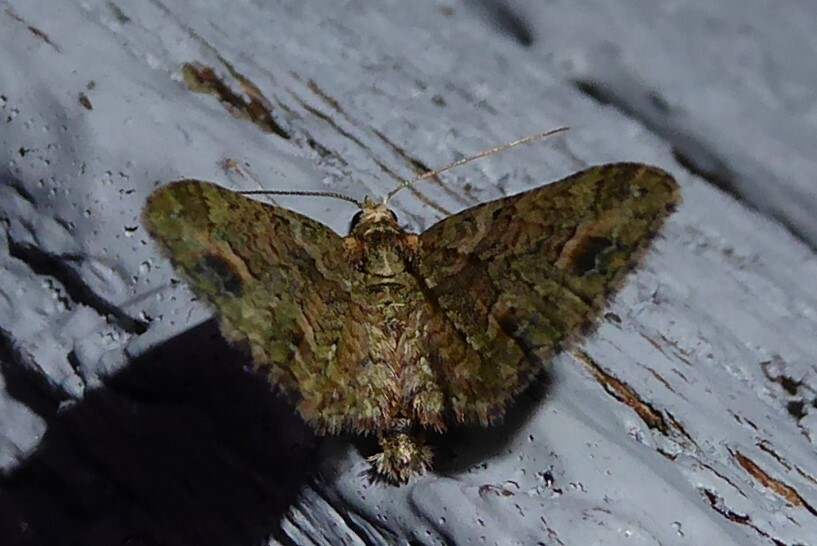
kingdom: Animalia
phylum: Arthropoda
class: Insecta
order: Lepidoptera
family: Geometridae
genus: Idaea
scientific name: Idaea mutanda
